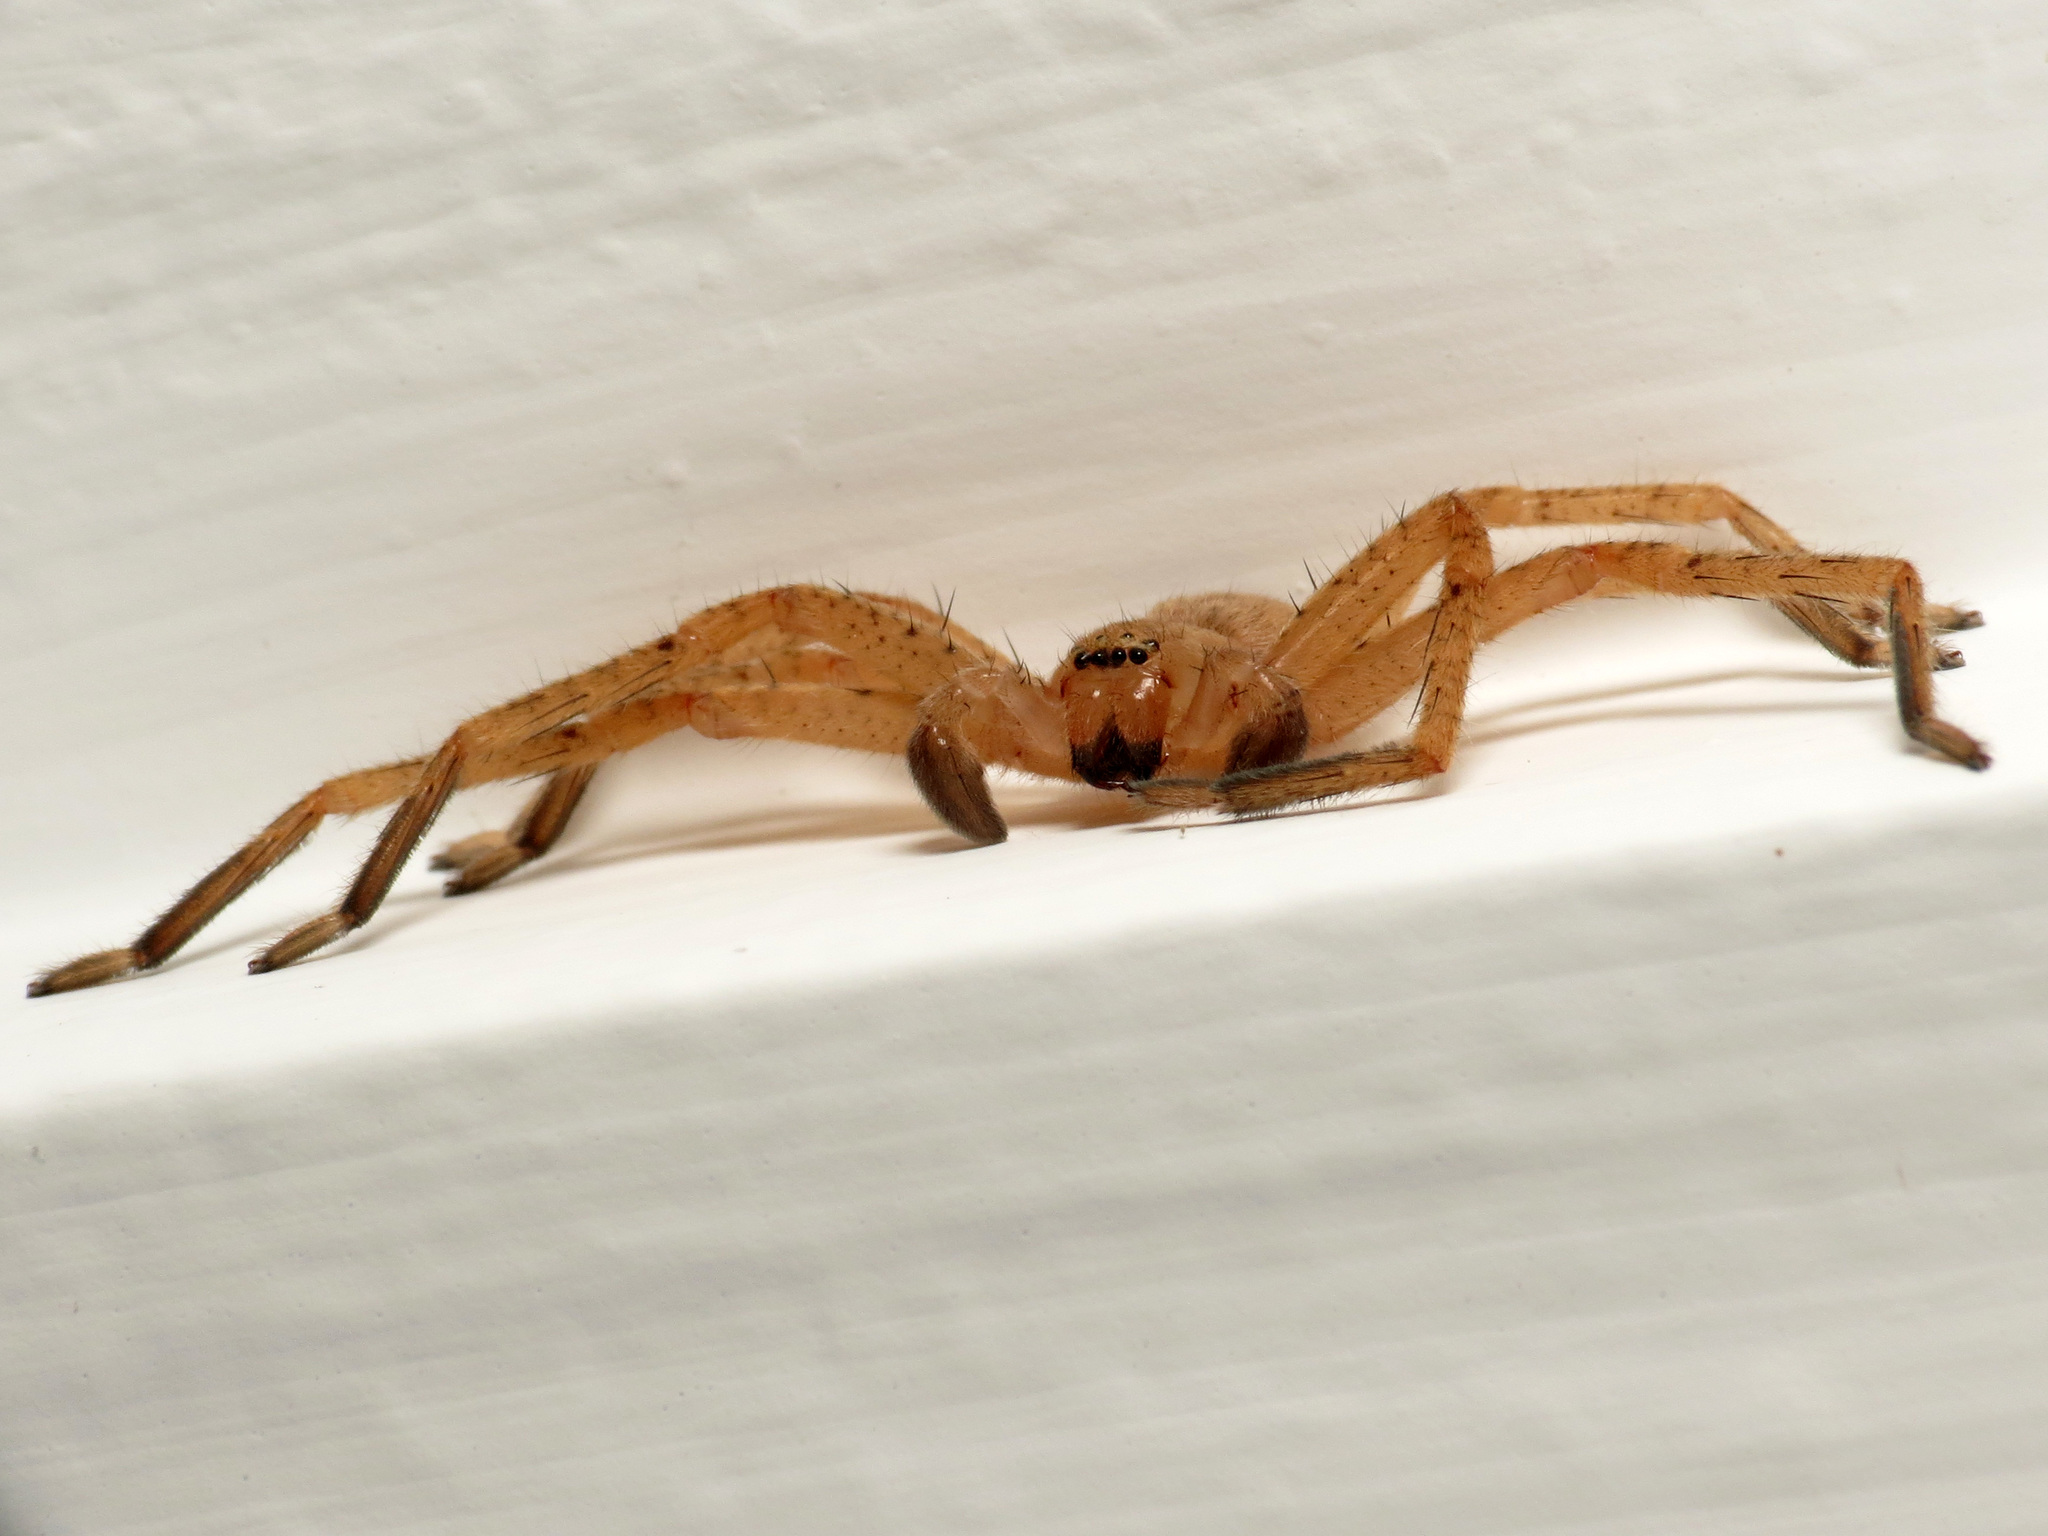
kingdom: Animalia
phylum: Arthropoda
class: Arachnida
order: Araneae
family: Sparassidae
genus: Olios
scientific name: Olios argelasius
